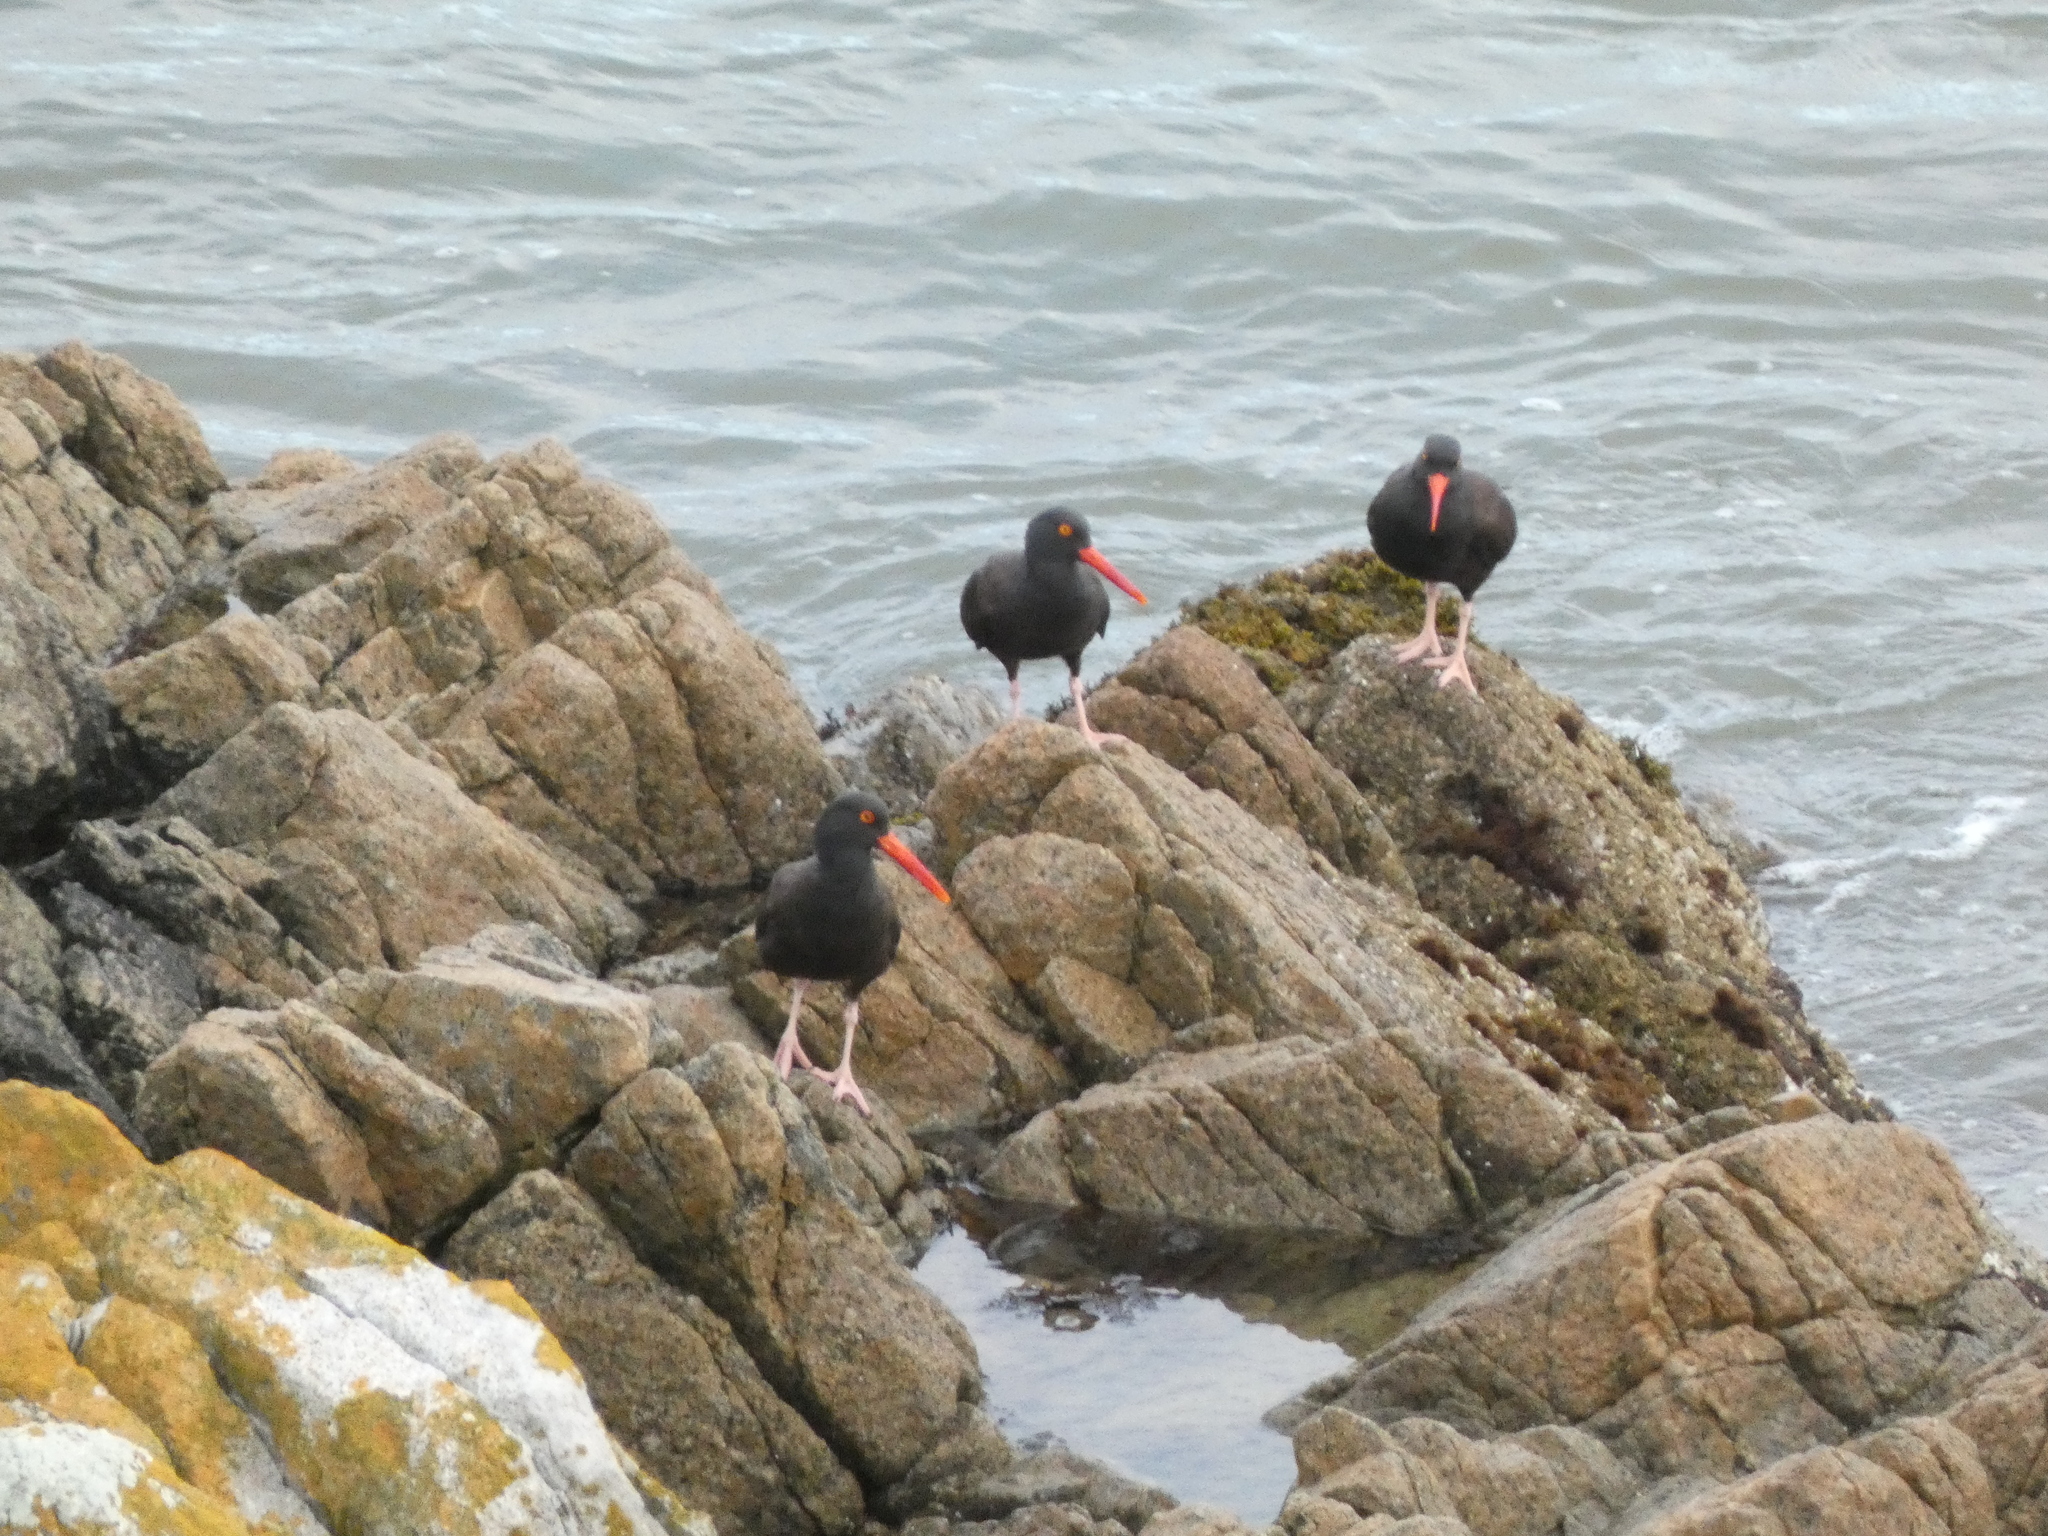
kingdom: Animalia
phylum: Chordata
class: Aves
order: Charadriiformes
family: Haematopodidae
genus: Haematopus
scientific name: Haematopus bachmani
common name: Black oystercatcher
